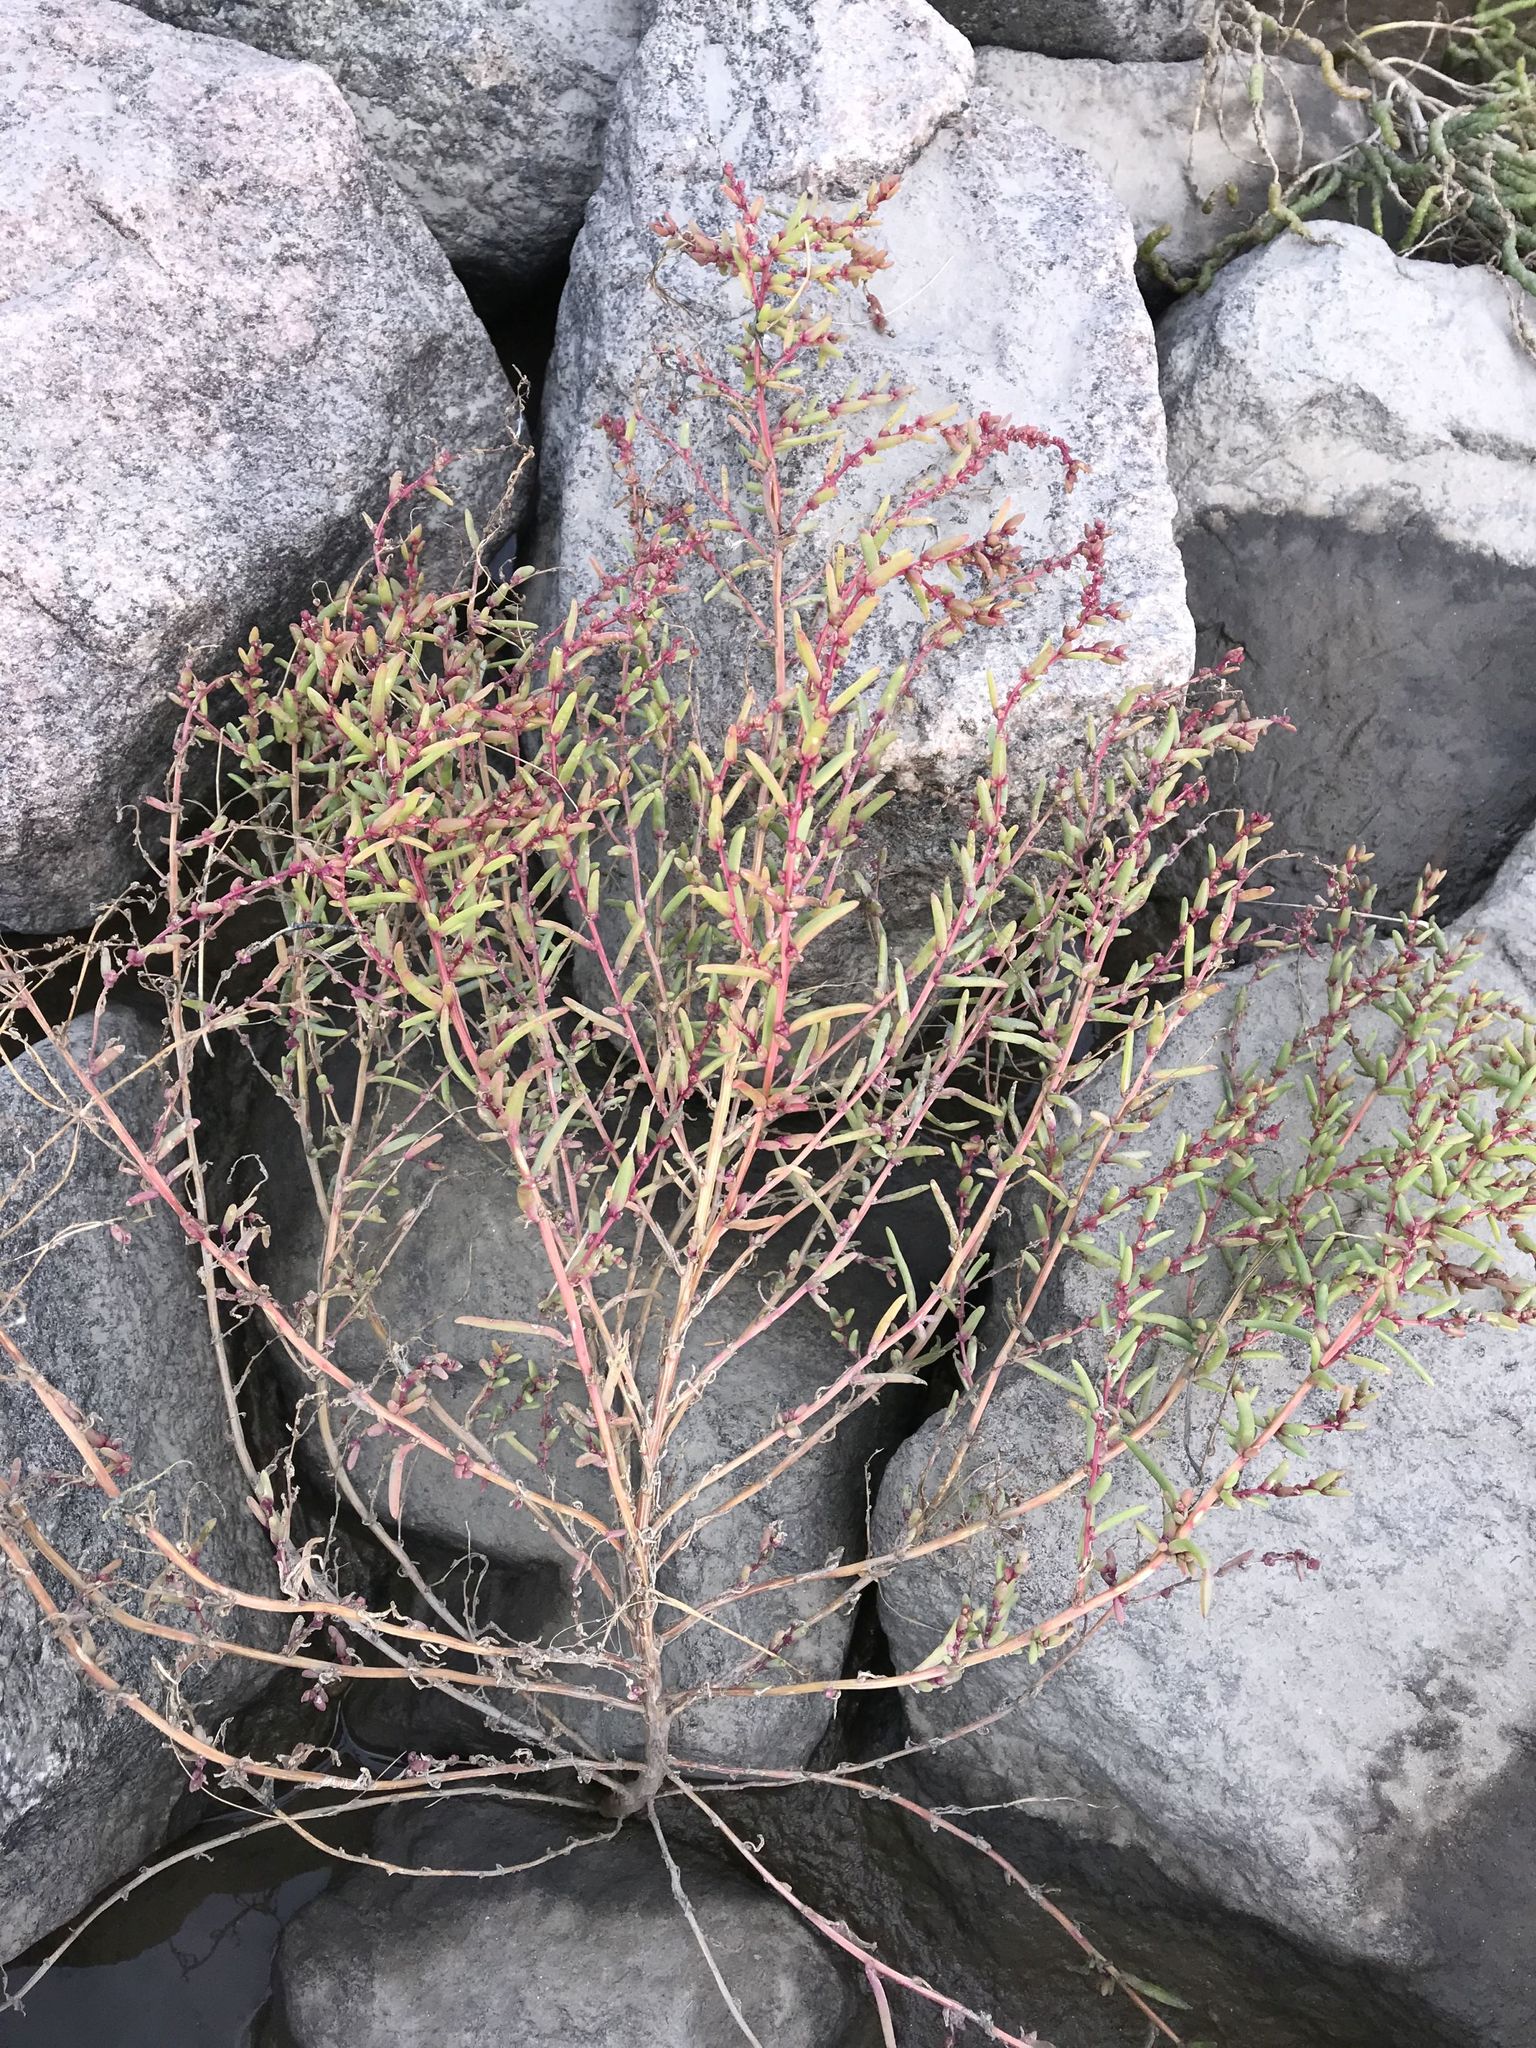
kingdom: Plantae
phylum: Tracheophyta
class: Magnoliopsida
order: Caryophyllales
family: Amaranthaceae
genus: Suaeda
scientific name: Suaeda maritima
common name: Annual sea-blite
